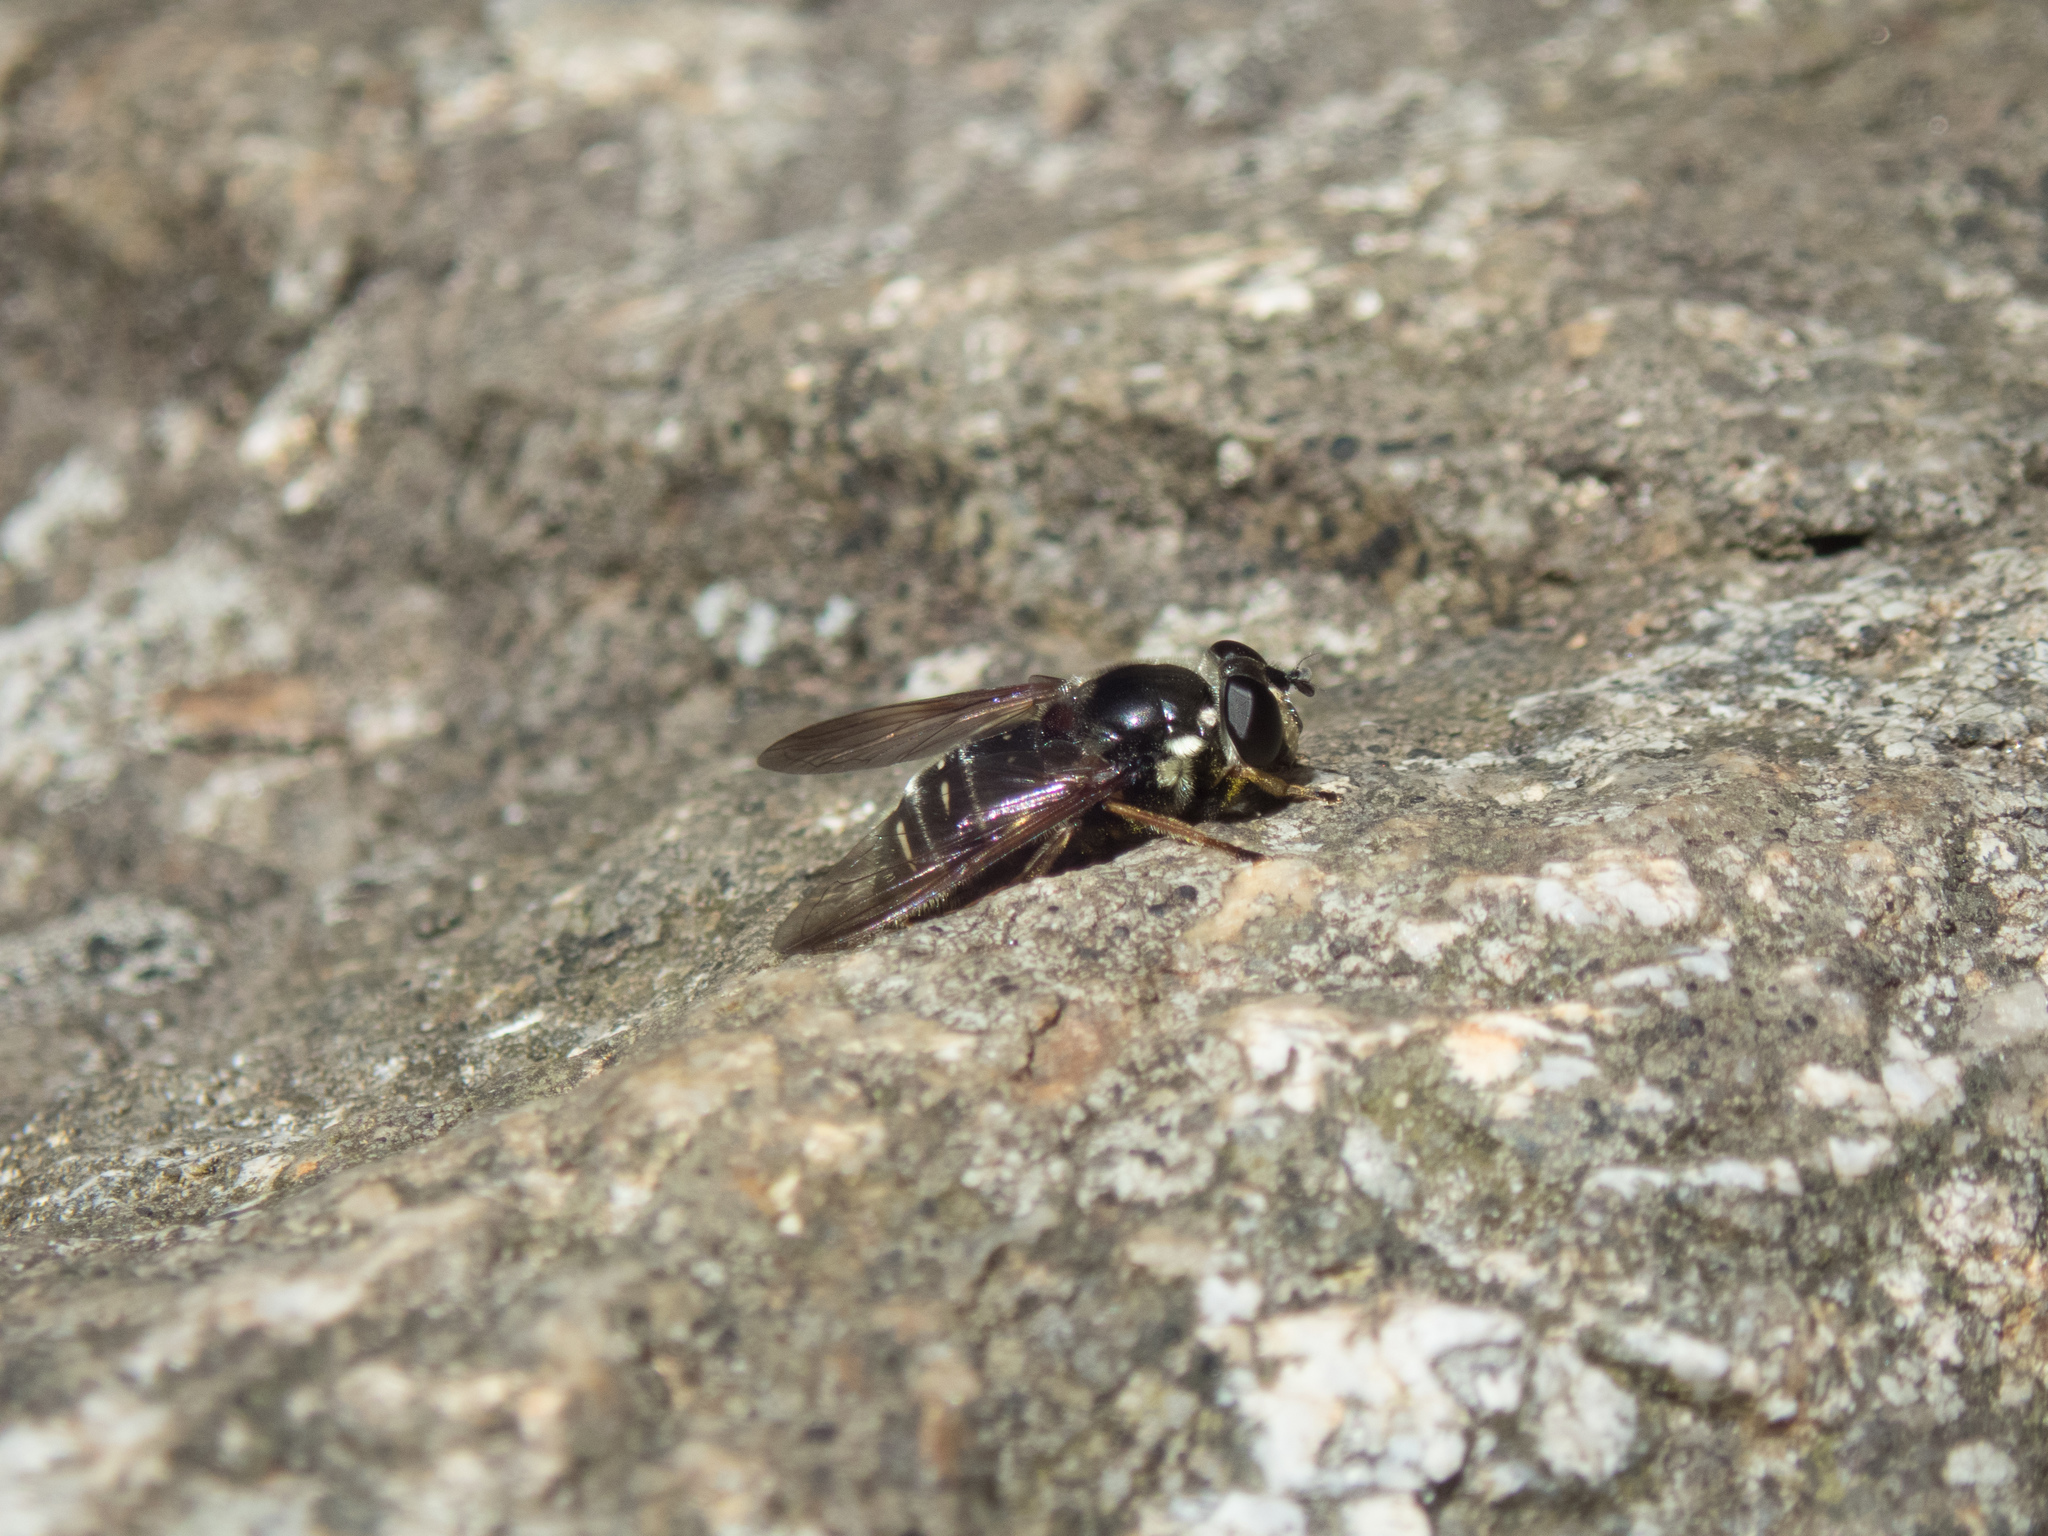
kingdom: Animalia
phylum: Arthropoda
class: Insecta
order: Diptera
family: Syrphidae
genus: Sericomyia
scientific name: Sericomyia militaris
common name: Narrow-banded pond fly
